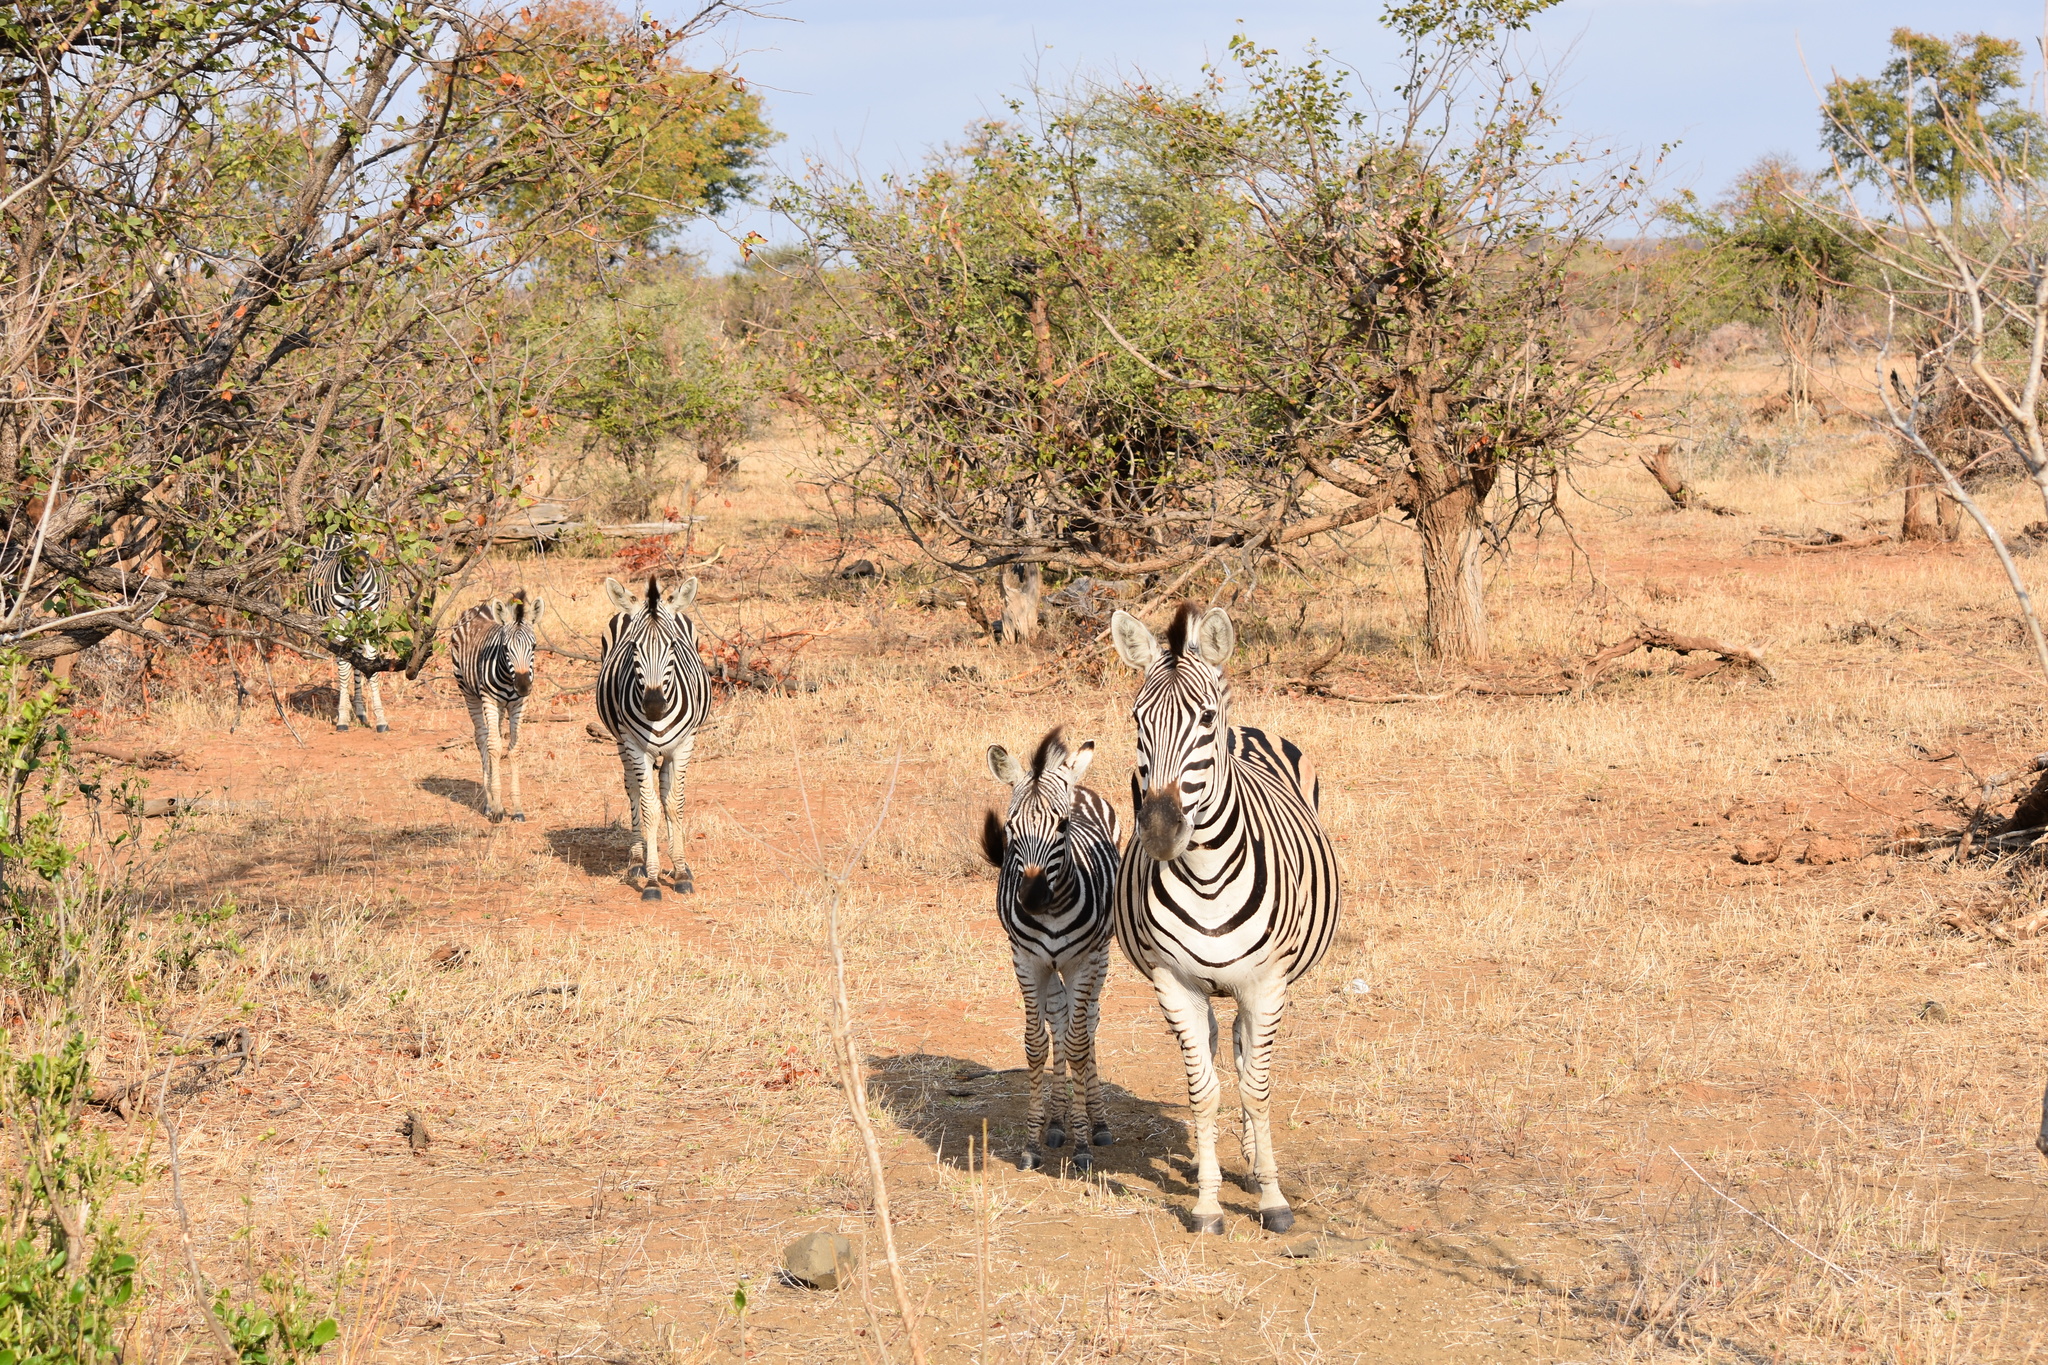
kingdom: Animalia
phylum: Chordata
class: Mammalia
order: Perissodactyla
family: Equidae
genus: Equus
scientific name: Equus quagga
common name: Plains zebra
